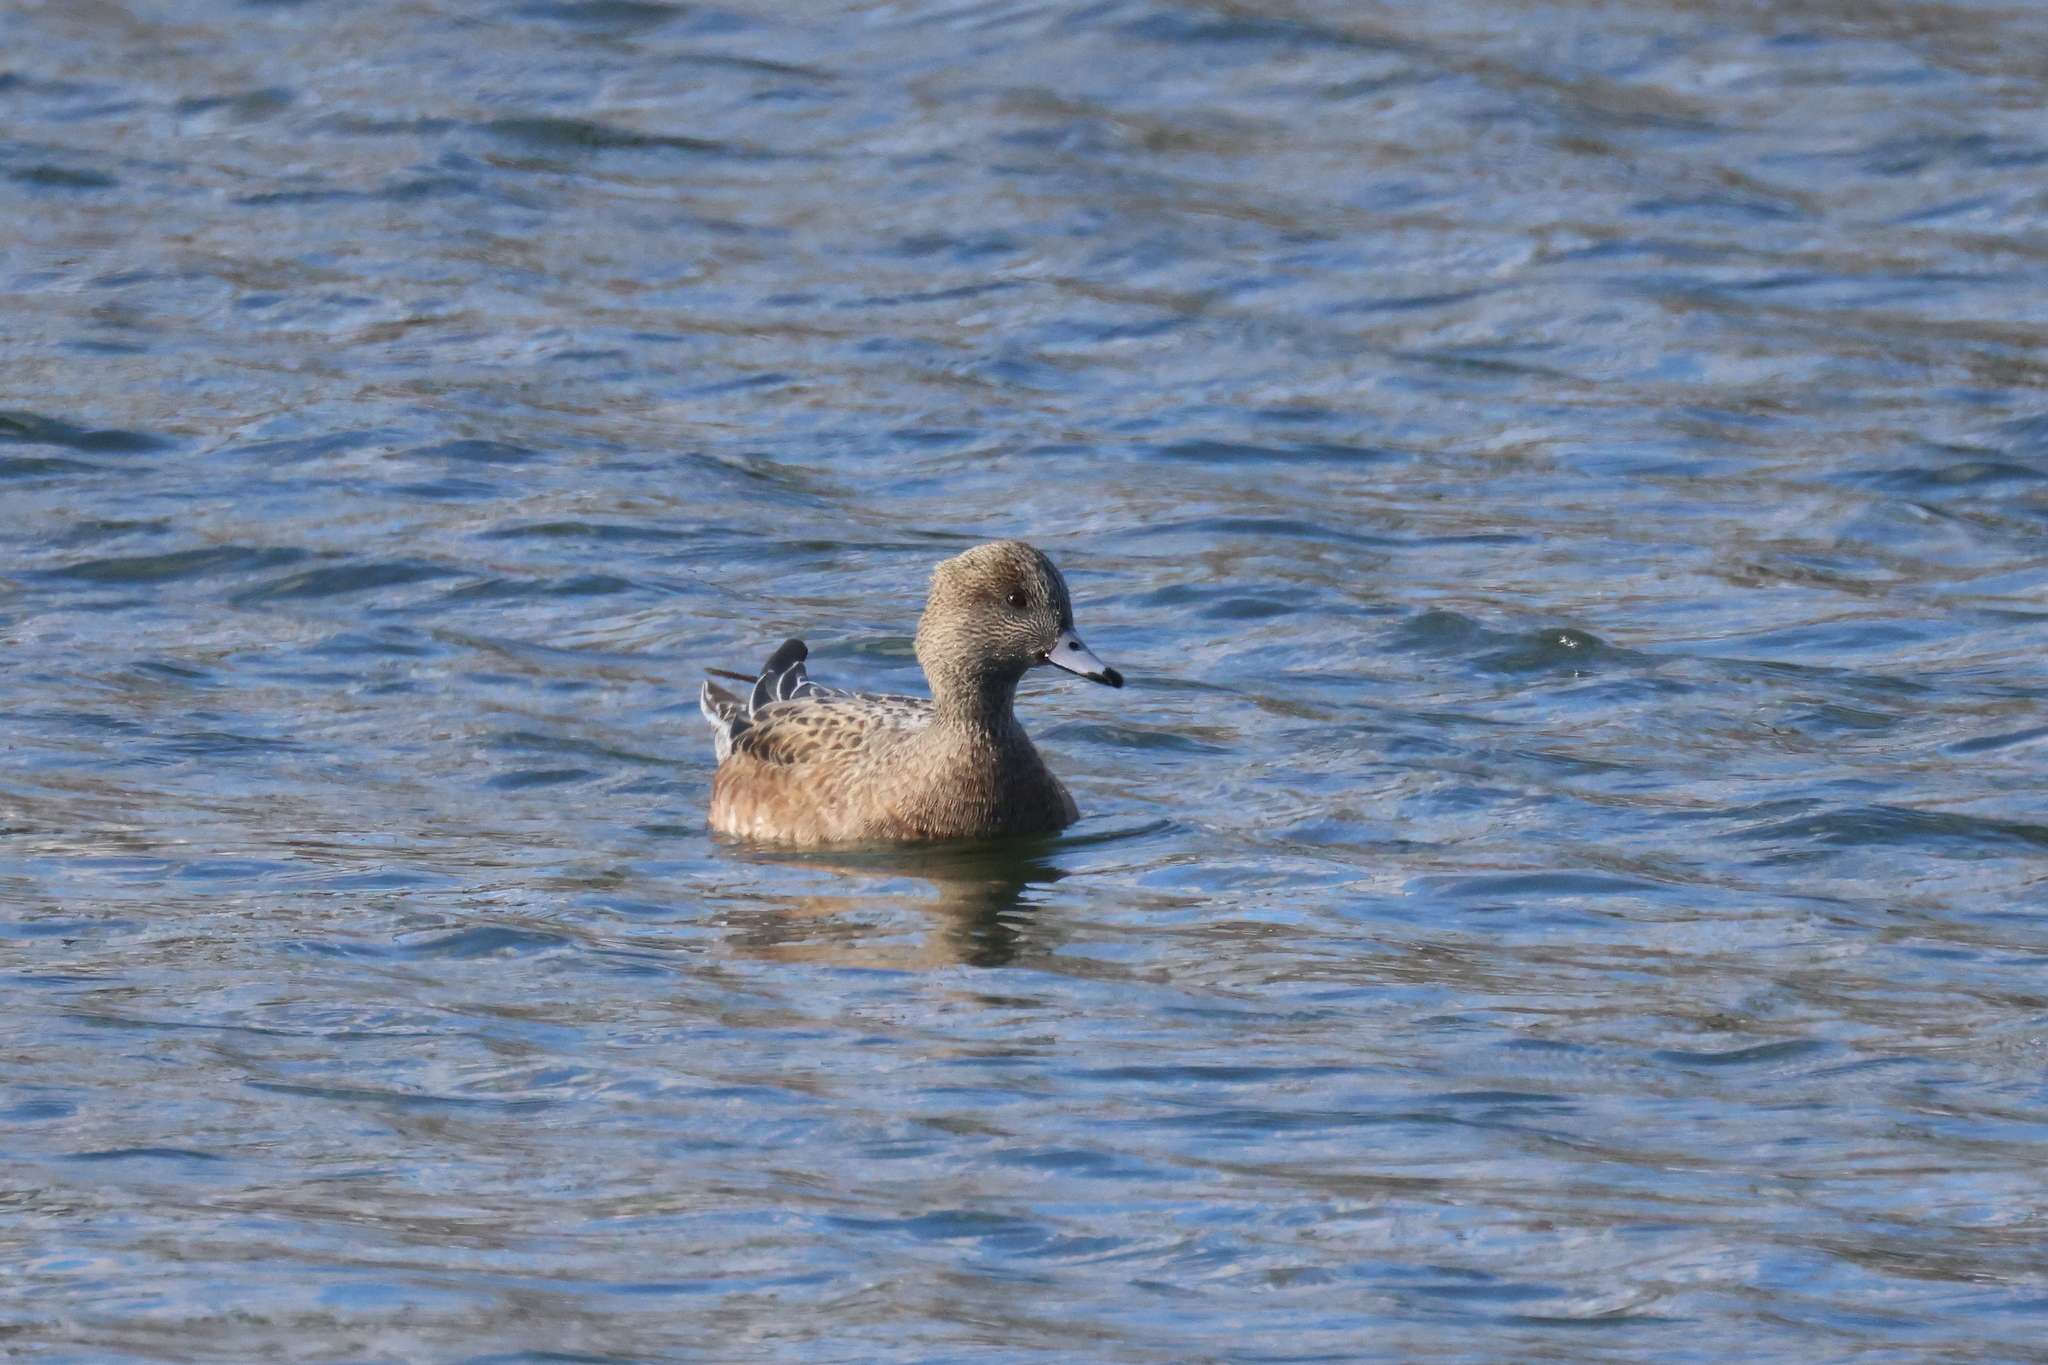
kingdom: Animalia
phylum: Chordata
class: Aves
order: Anseriformes
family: Anatidae
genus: Mareca
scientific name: Mareca americana
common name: American wigeon
